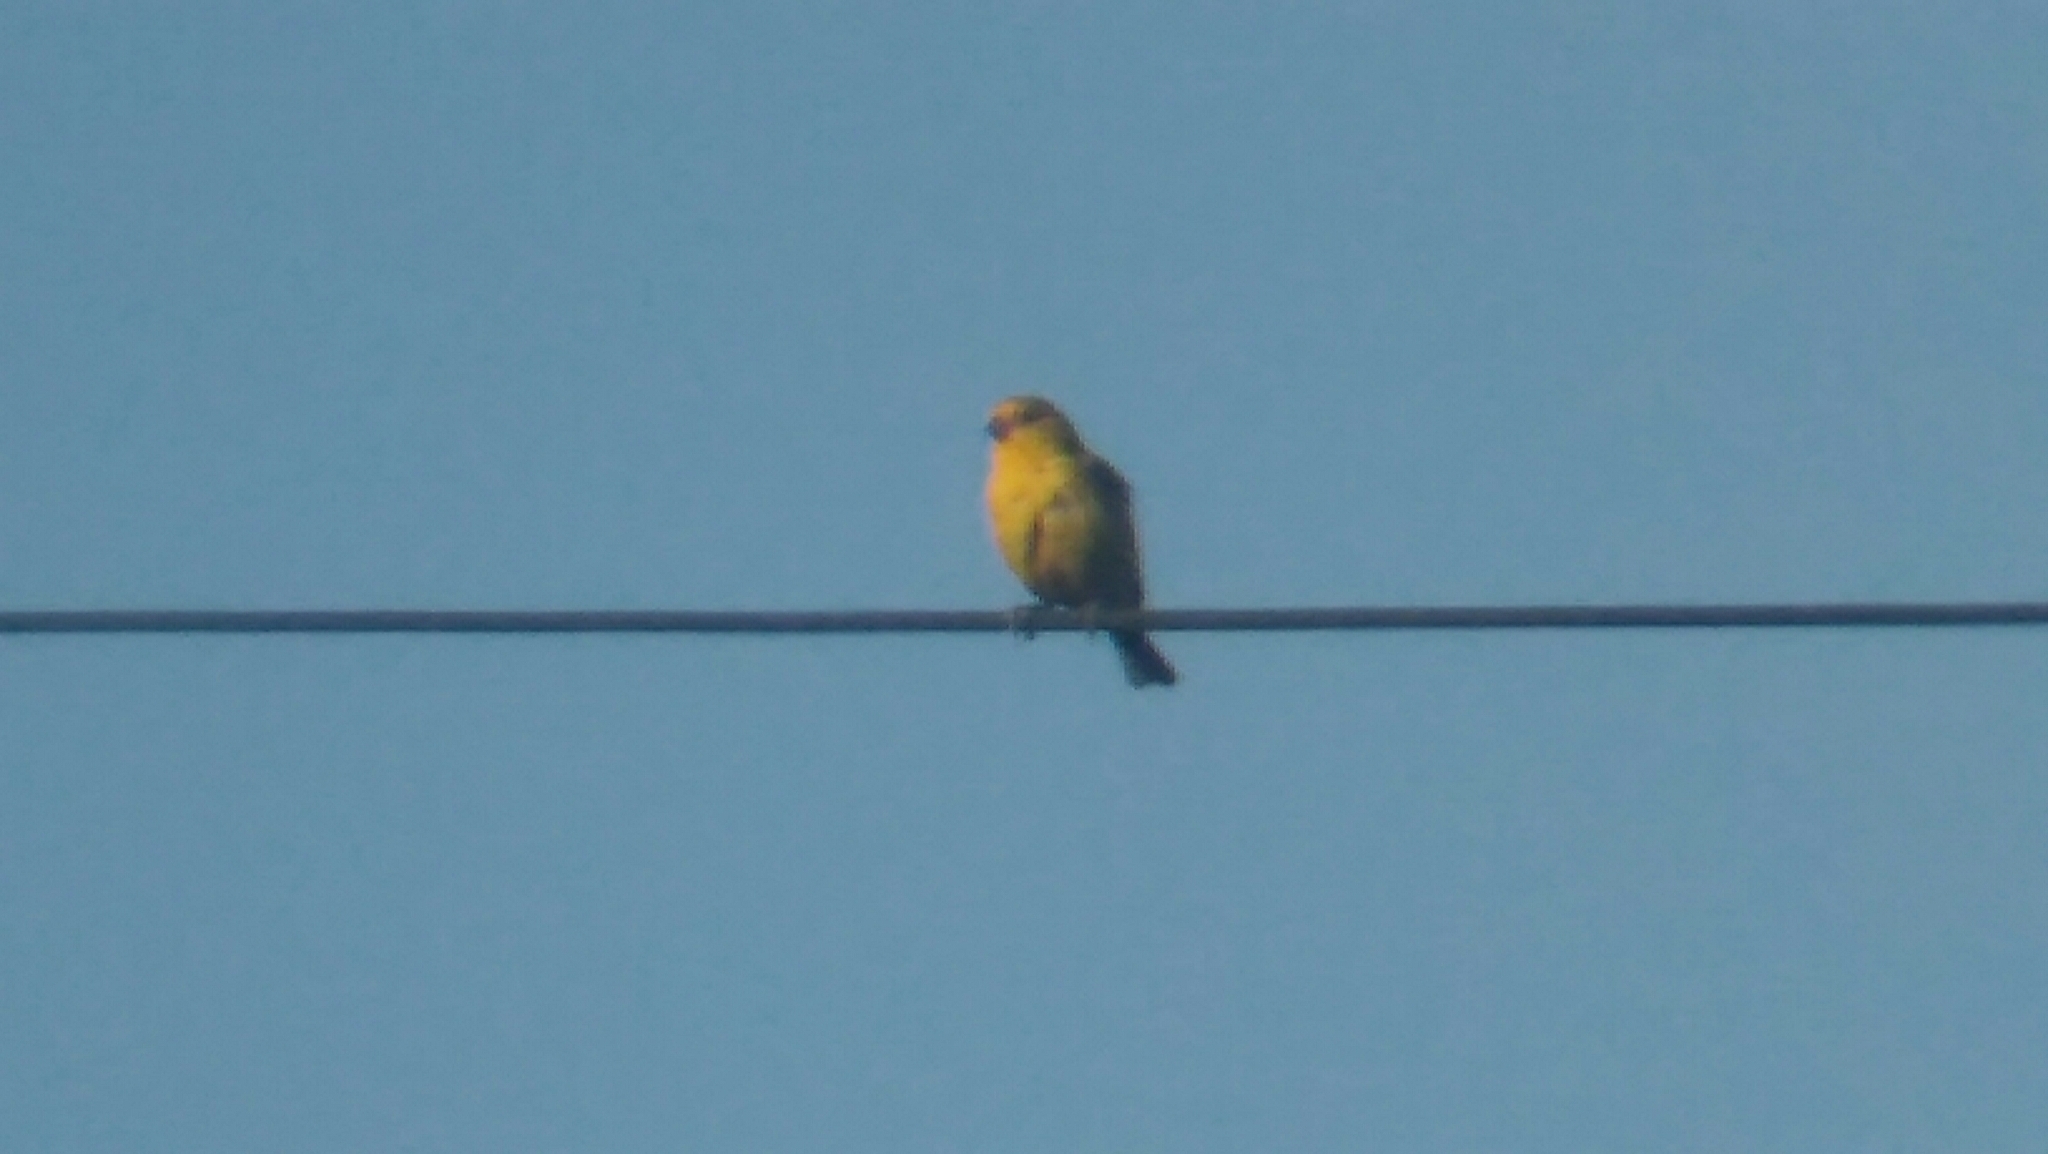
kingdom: Animalia
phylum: Chordata
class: Aves
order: Passeriformes
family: Thraupidae
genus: Sicalis
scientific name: Sicalis flaveola
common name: Saffron finch
